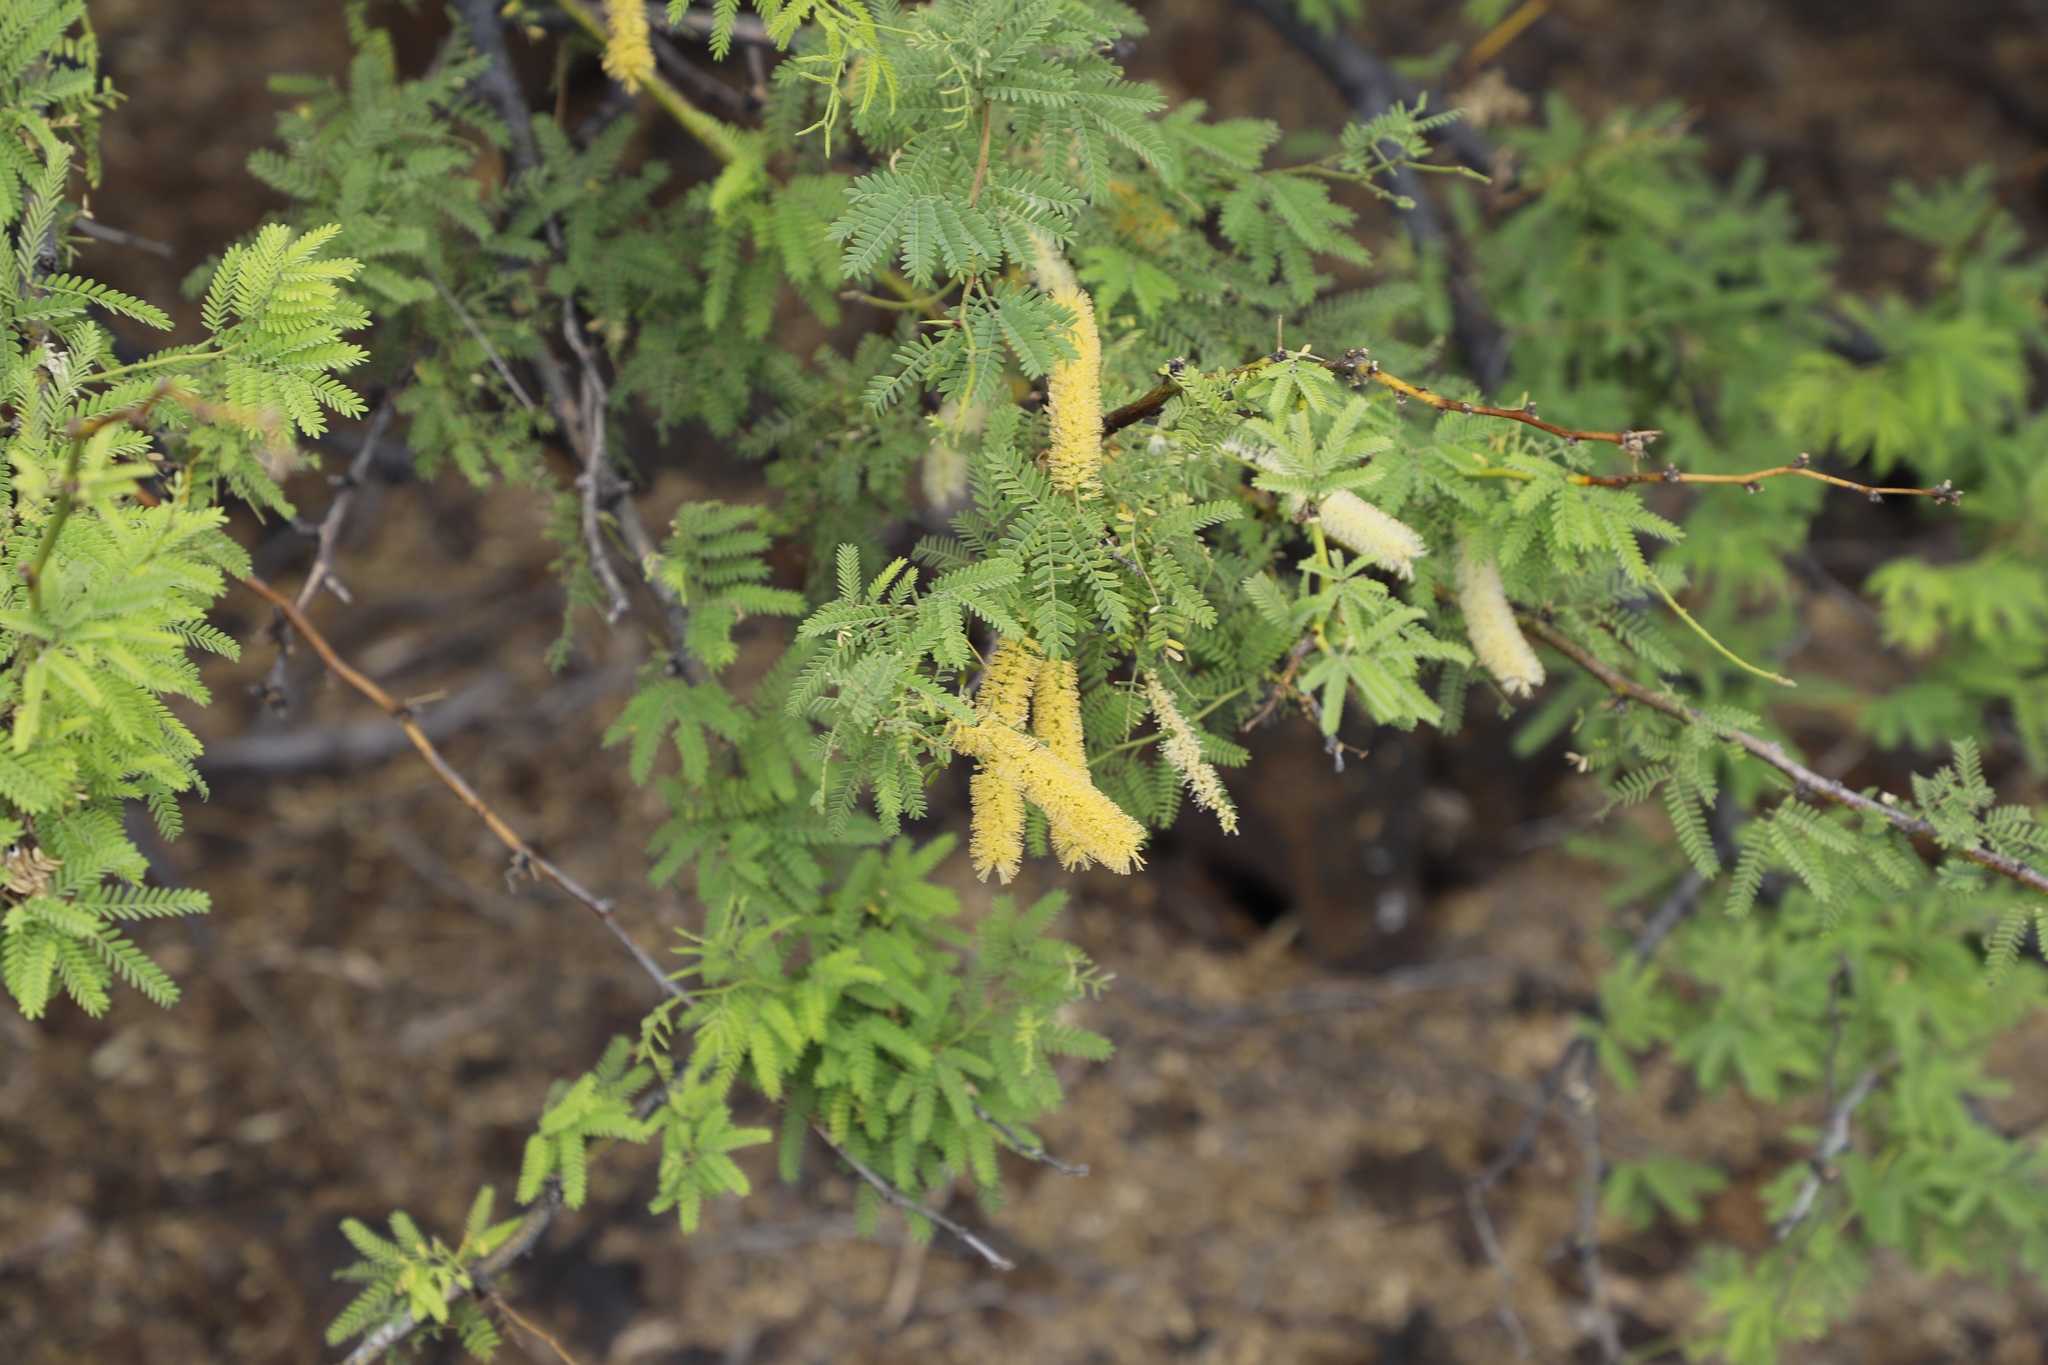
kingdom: Plantae
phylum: Tracheophyta
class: Magnoliopsida
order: Fabales
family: Fabaceae
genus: Prosopis
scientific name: Prosopis pallida
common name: Mesquite
